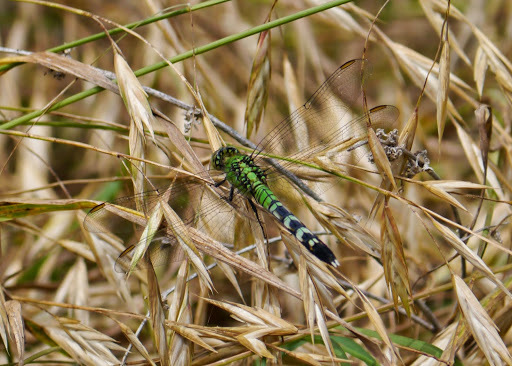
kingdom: Animalia
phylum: Arthropoda
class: Insecta
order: Odonata
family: Libellulidae
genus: Erythemis
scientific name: Erythemis simplicicollis
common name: Eastern pondhawk
